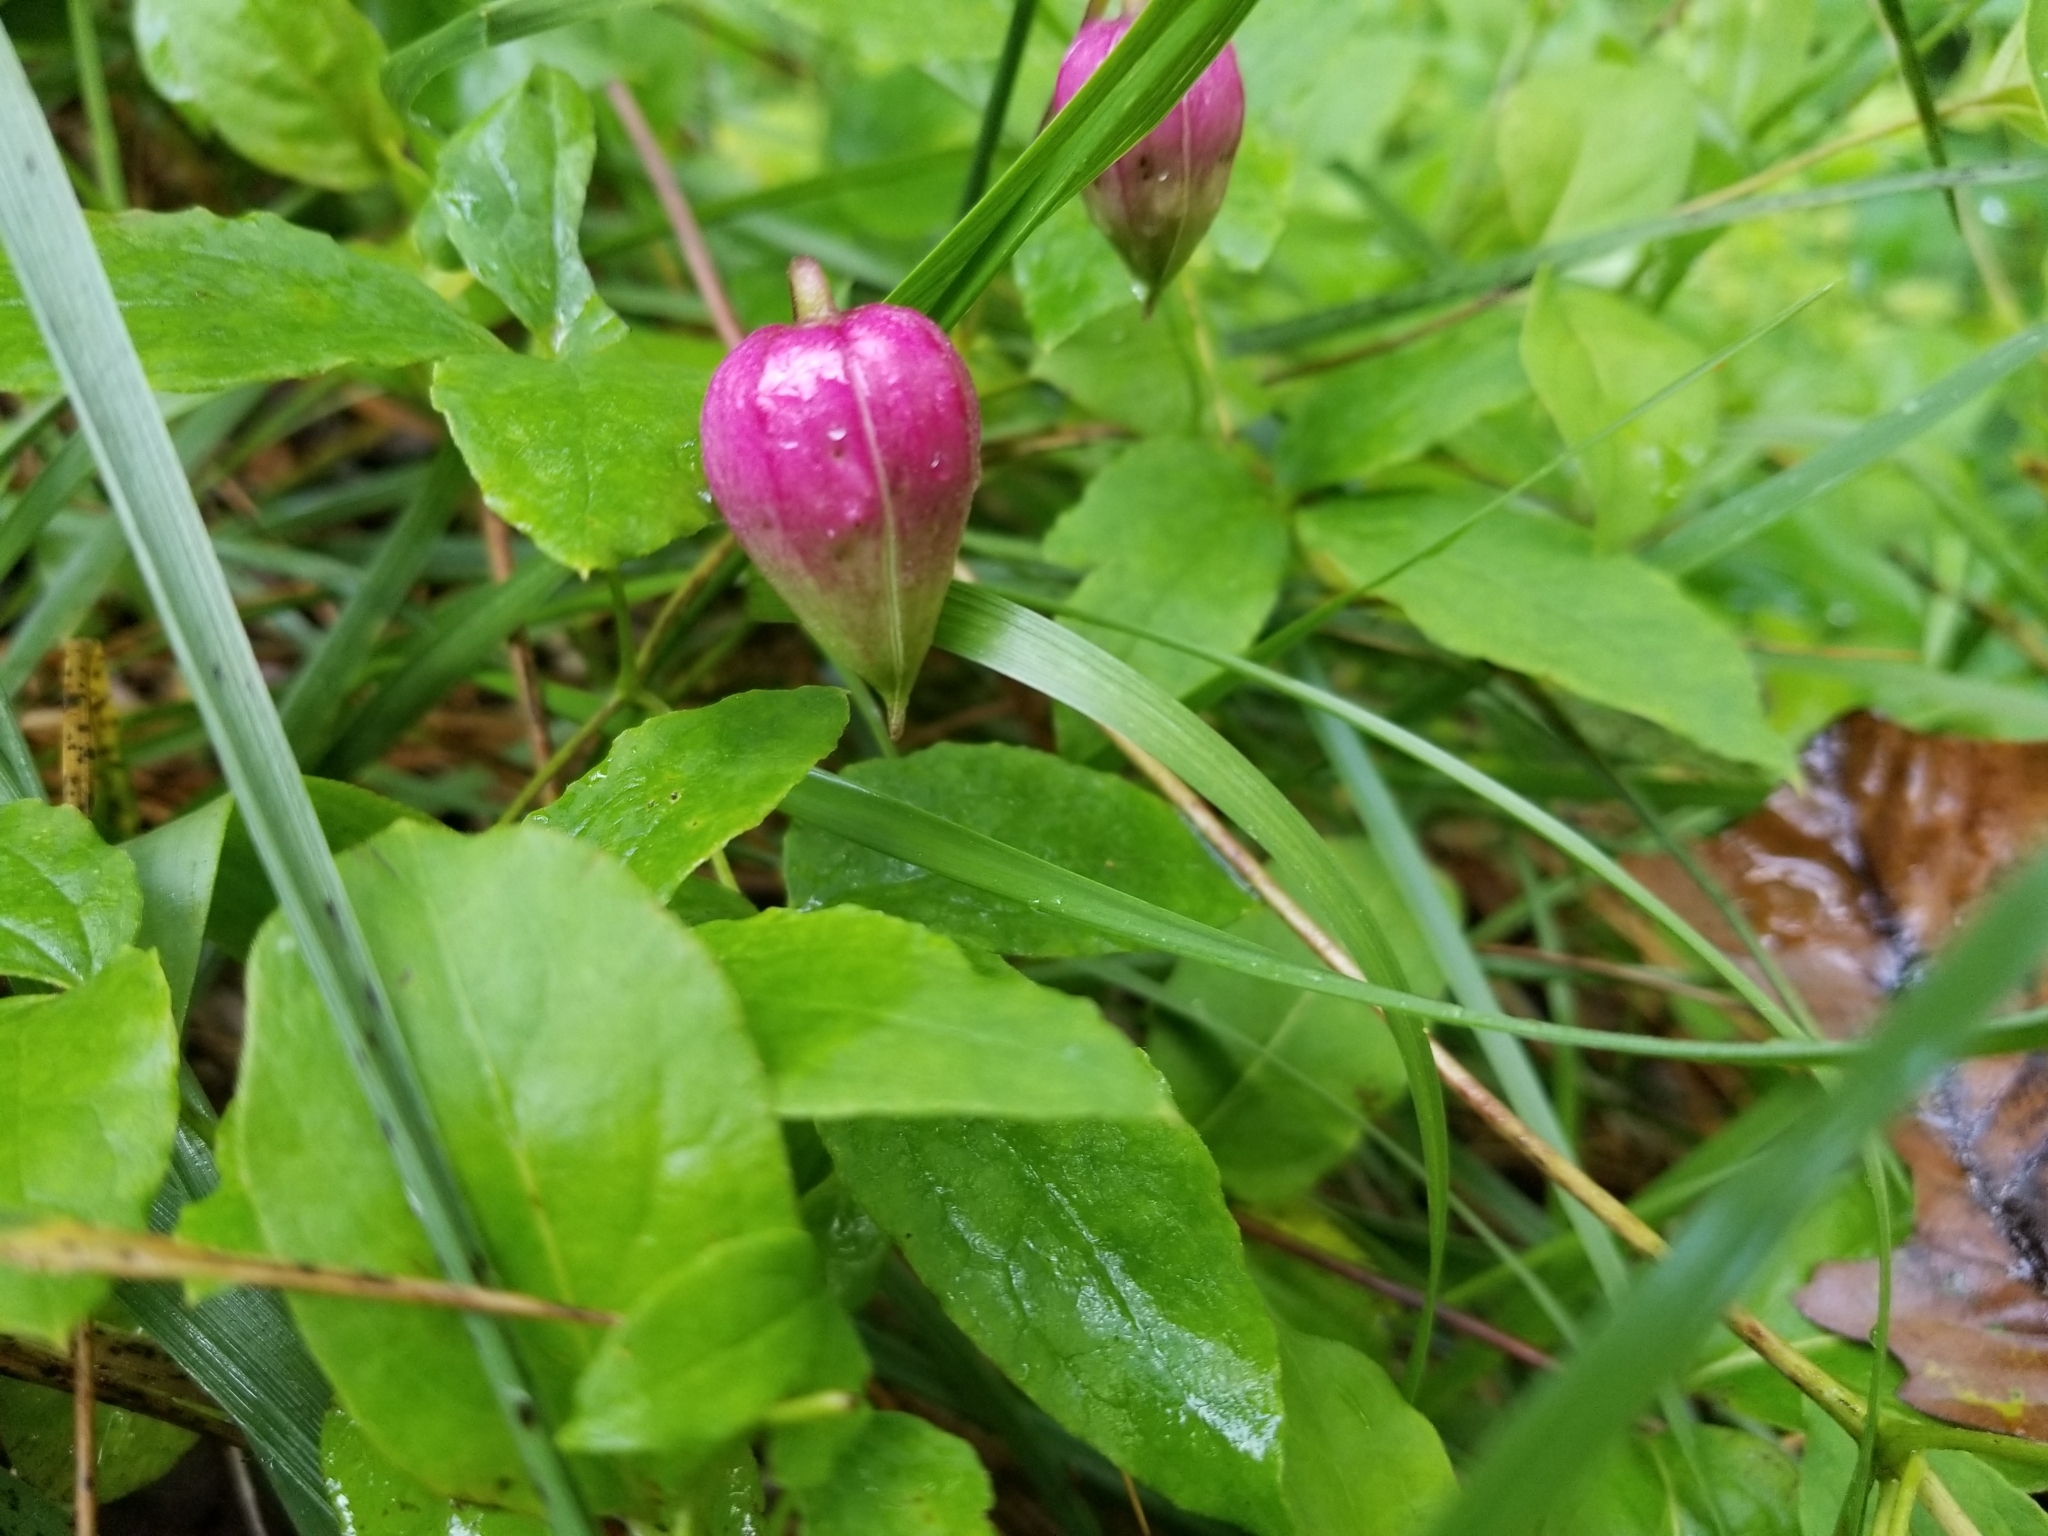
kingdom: Plantae
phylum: Tracheophyta
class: Magnoliopsida
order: Ranunculales
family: Ranunculaceae
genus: Clematis
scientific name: Clematis viorna
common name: Leather-flower
